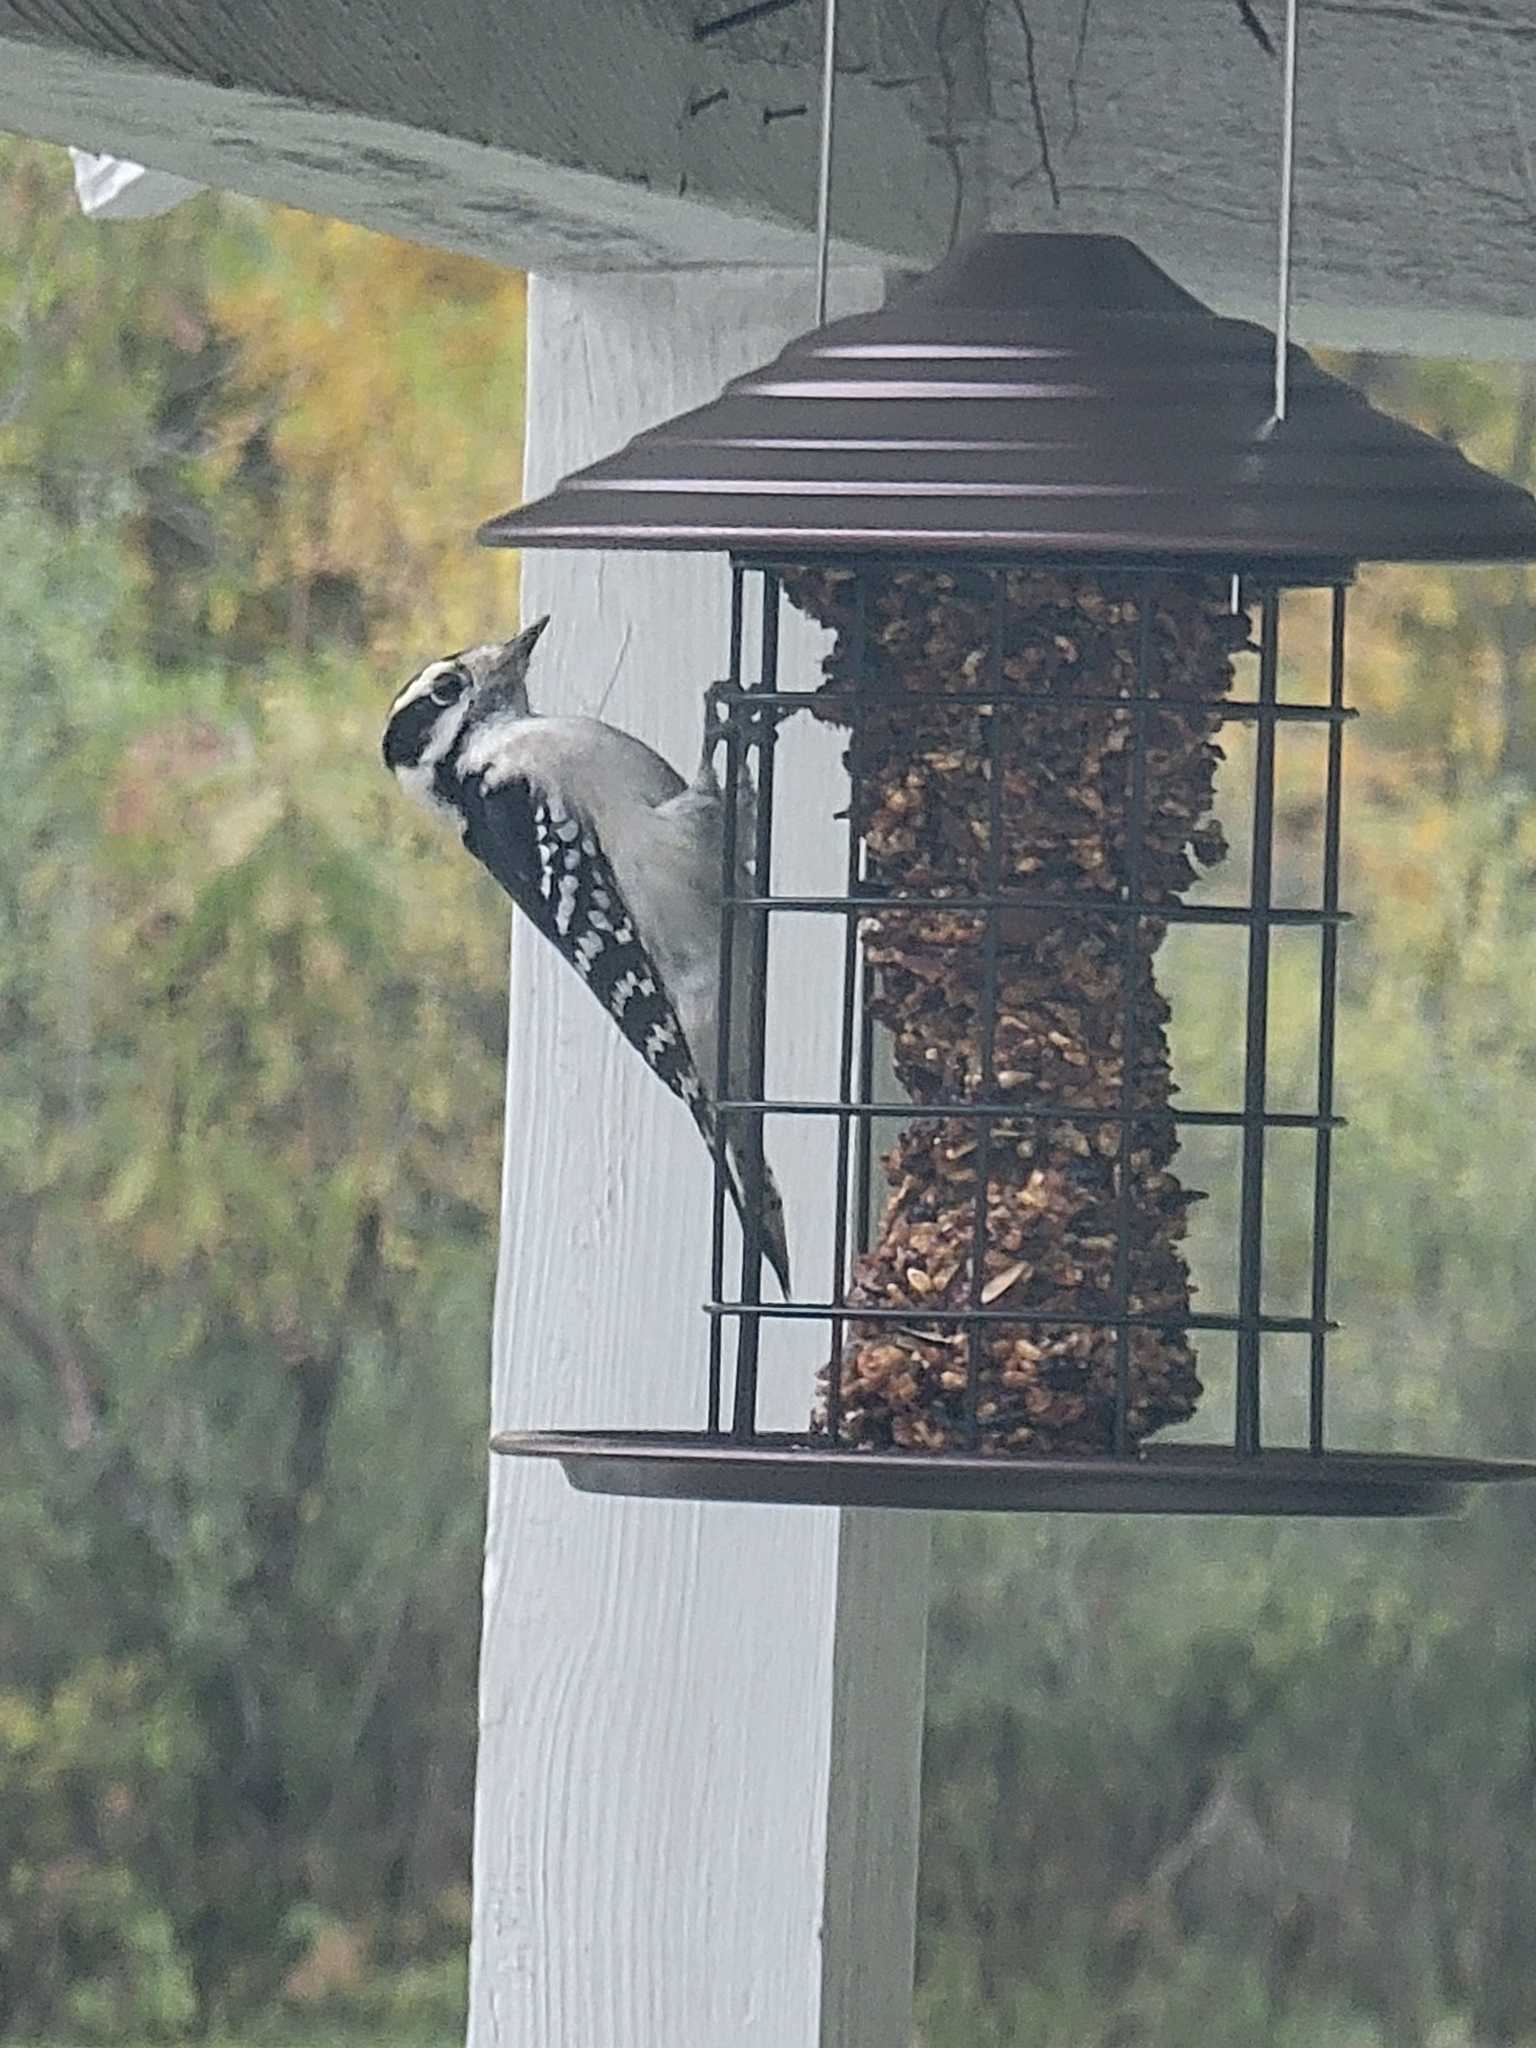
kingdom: Animalia
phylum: Chordata
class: Aves
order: Piciformes
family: Picidae
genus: Dryobates
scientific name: Dryobates pubescens
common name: Downy woodpecker
